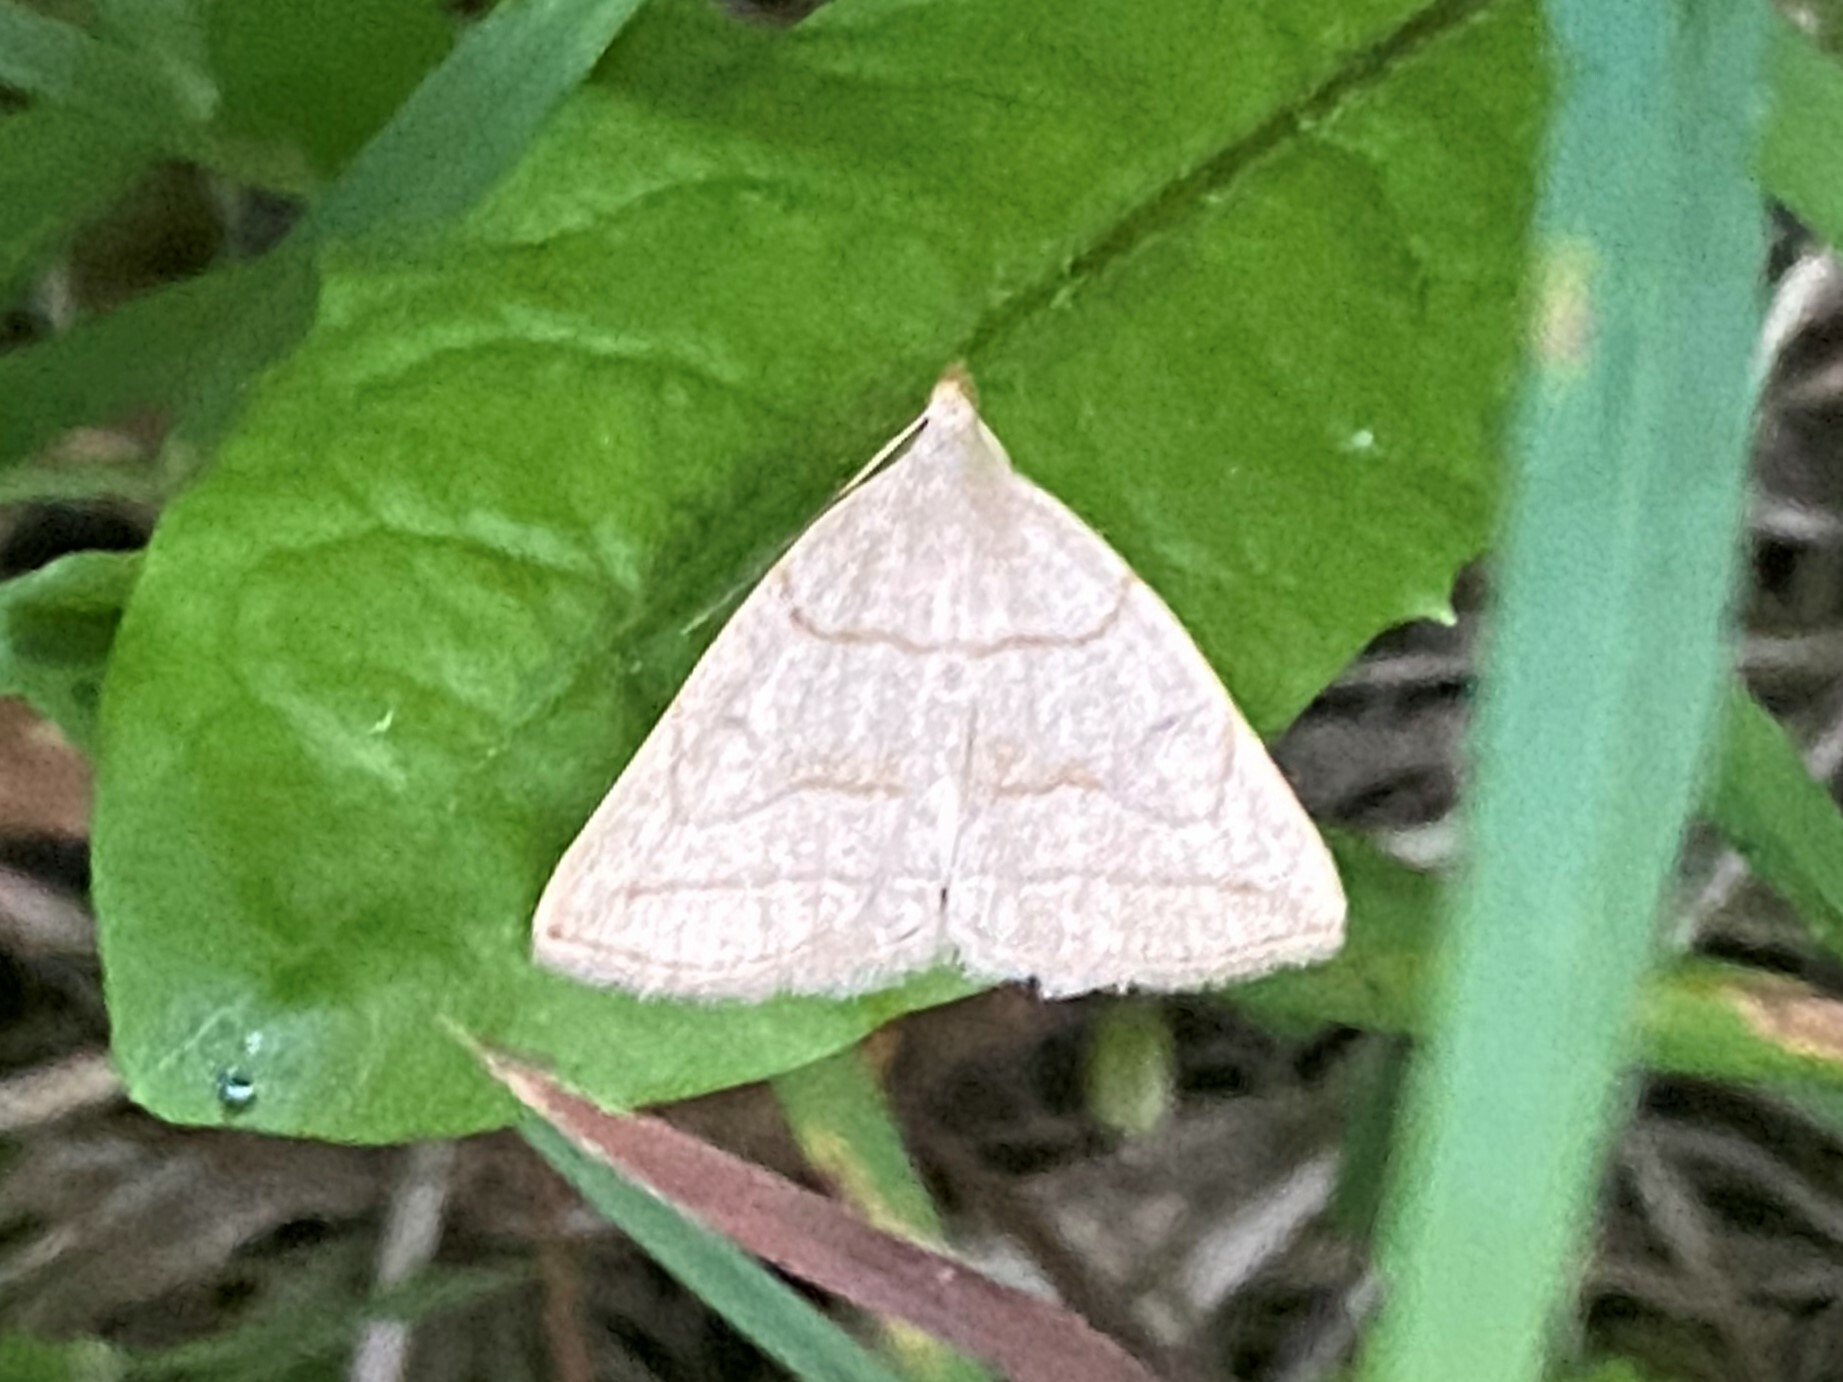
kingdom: Animalia
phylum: Arthropoda
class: Insecta
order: Lepidoptera
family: Erebidae
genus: Zanclognatha
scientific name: Zanclognatha pedipilalis
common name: Grayish fan-foot
